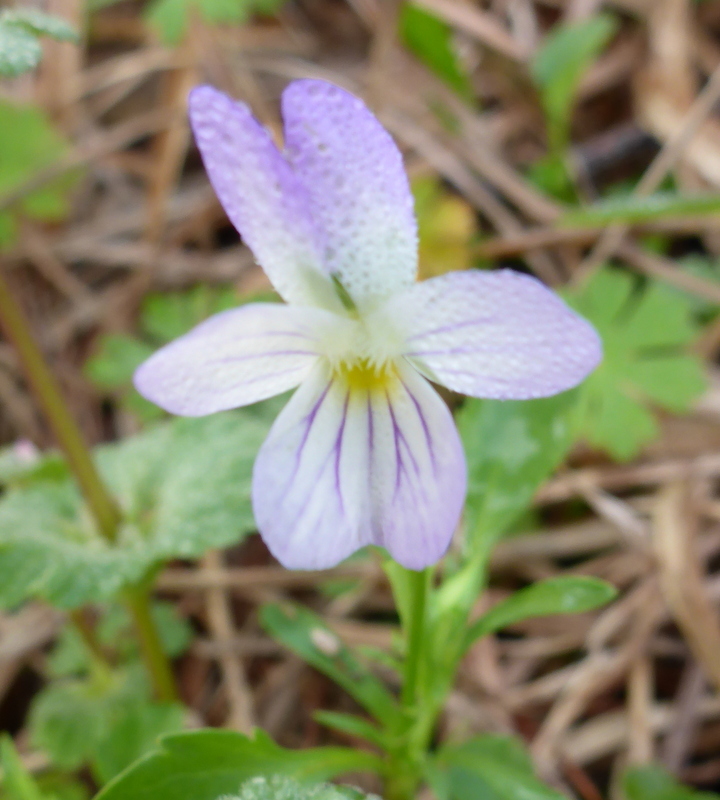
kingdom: Plantae
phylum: Tracheophyta
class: Magnoliopsida
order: Malpighiales
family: Violaceae
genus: Viola
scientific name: Viola rafinesquei
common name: American field pansy
